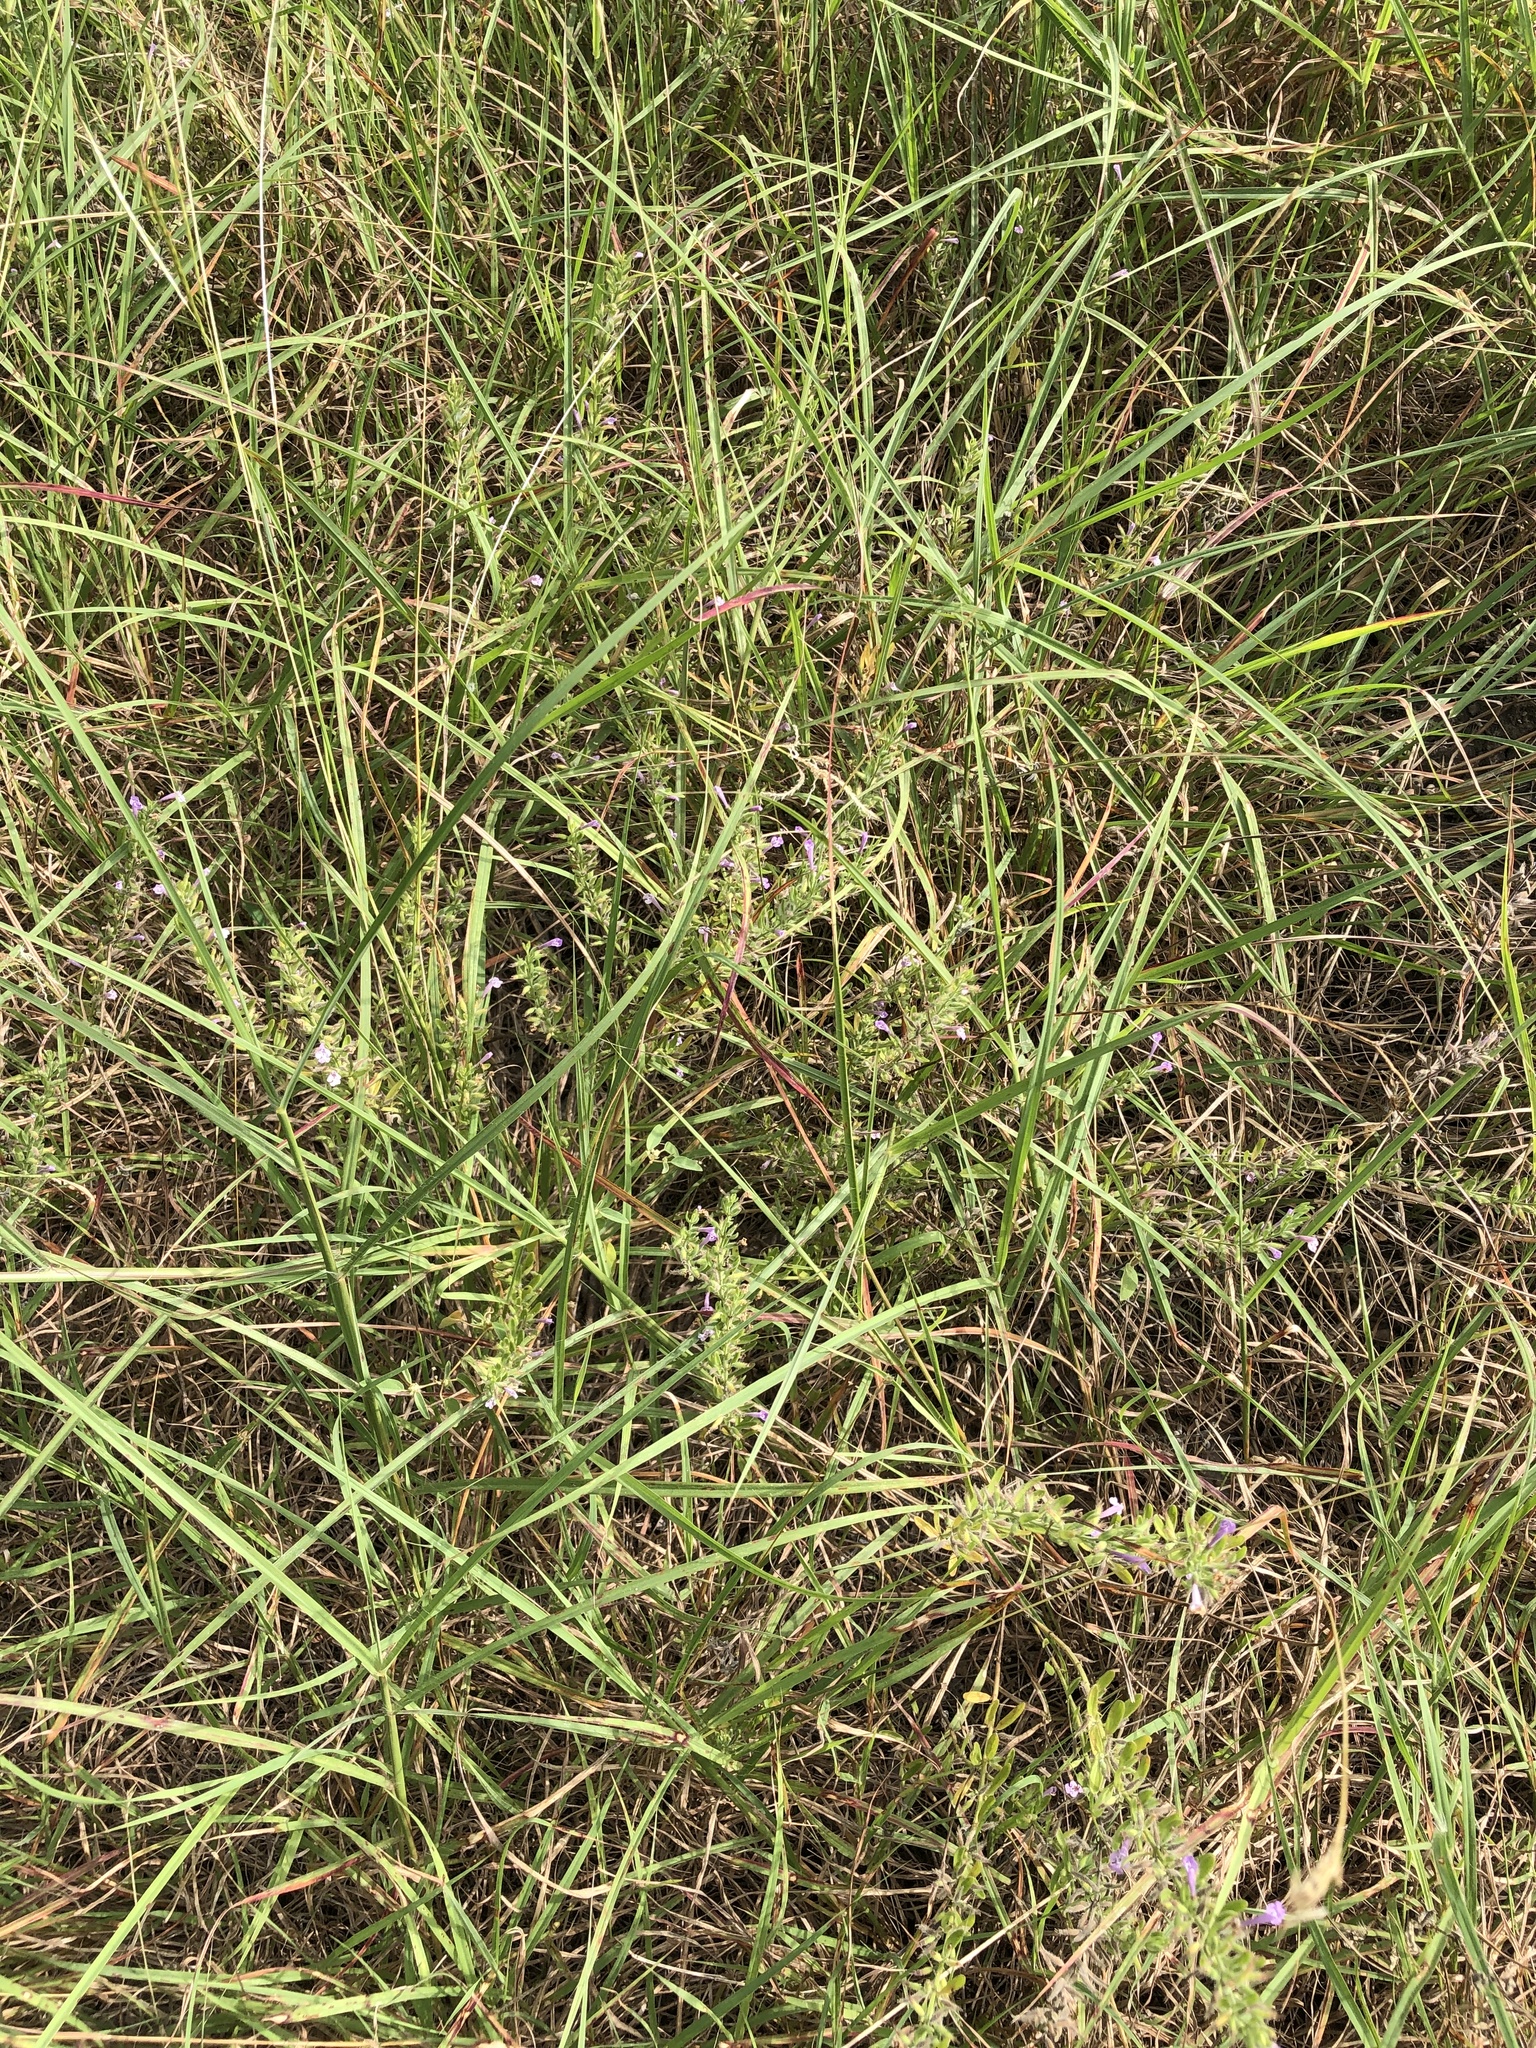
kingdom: Plantae
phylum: Tracheophyta
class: Magnoliopsida
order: Lamiales
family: Lamiaceae
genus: Hedeoma
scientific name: Hedeoma reverchonii
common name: Reverchon's false penny-royal
